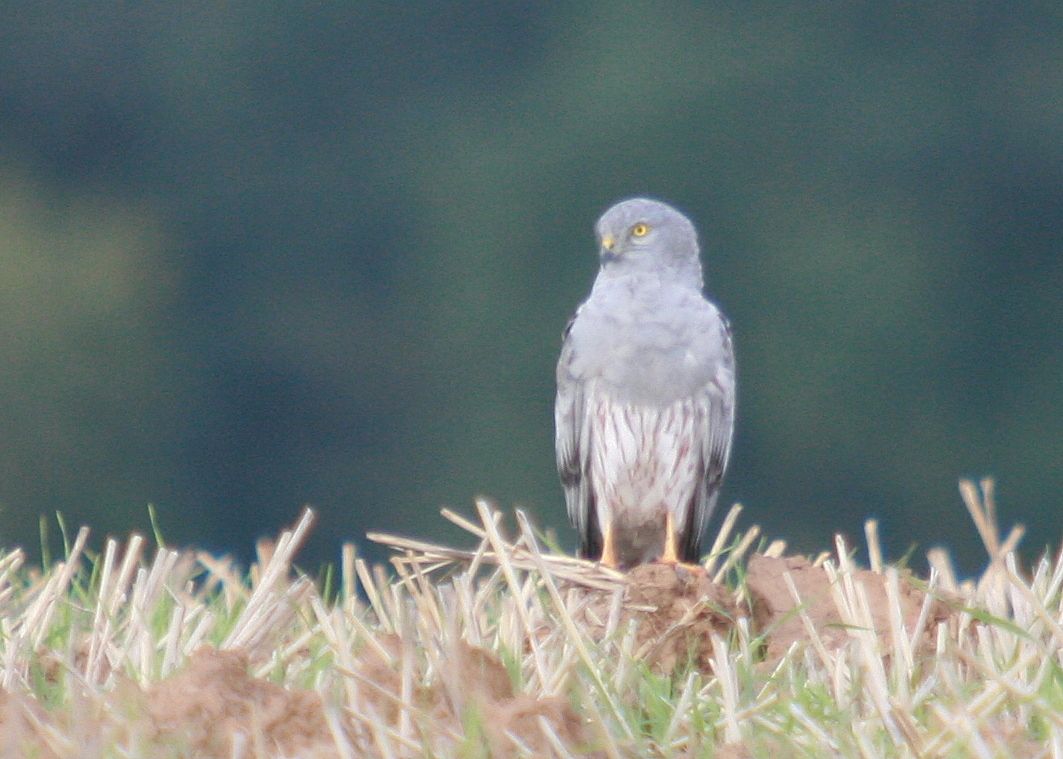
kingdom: Animalia
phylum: Chordata
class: Aves
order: Accipitriformes
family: Accipitridae
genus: Circus
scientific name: Circus pygargus
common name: Montagu's harrier
